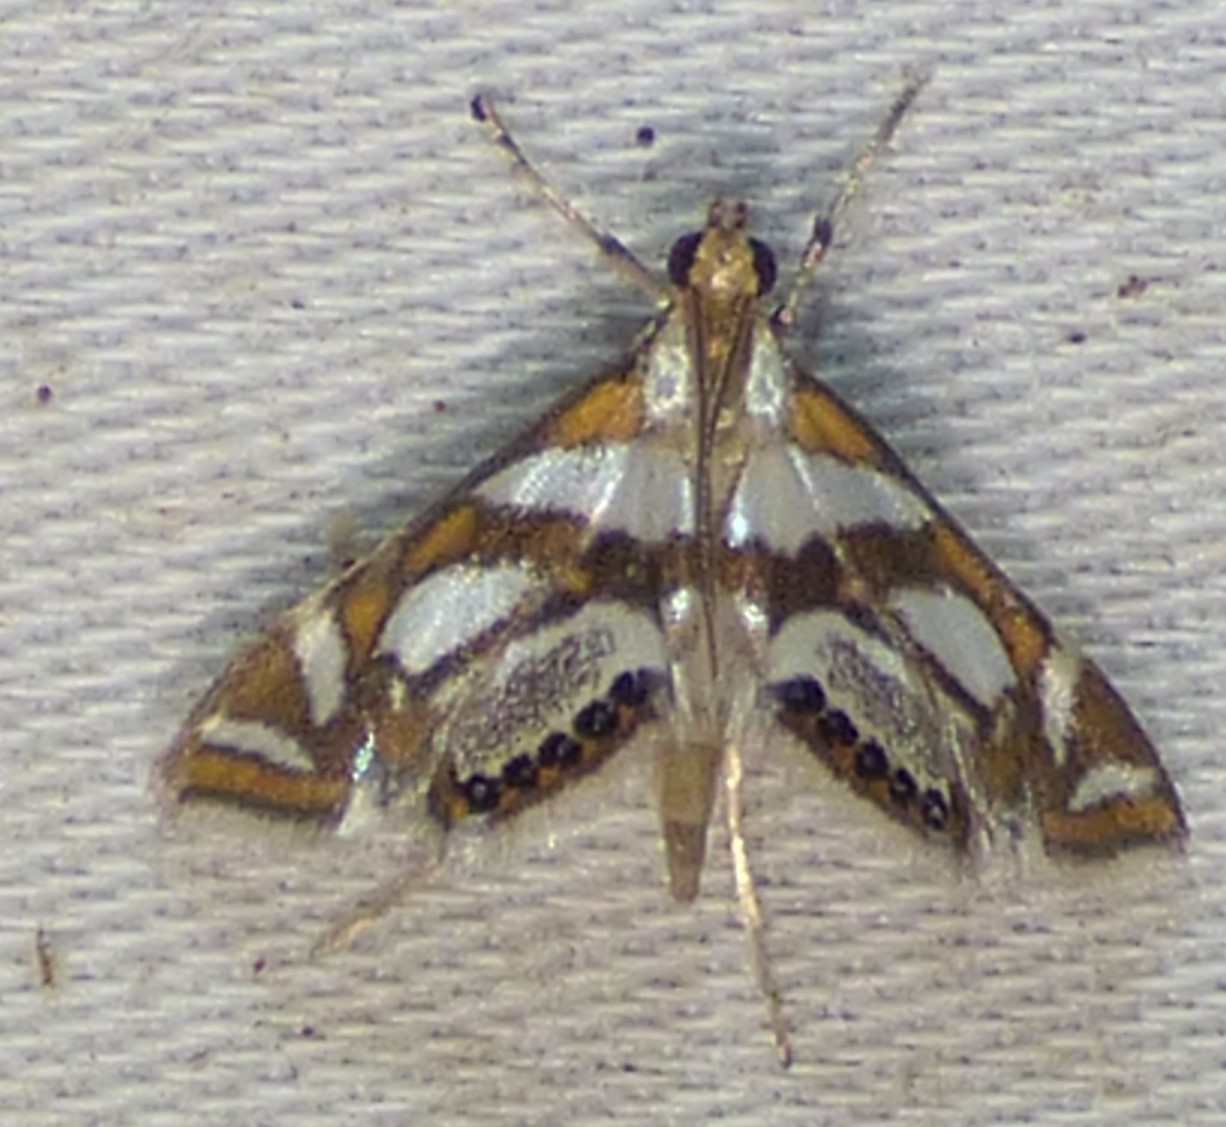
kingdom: Animalia
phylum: Arthropoda
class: Insecta
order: Lepidoptera
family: Crambidae
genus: Chrysendeton
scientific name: Chrysendeton medicinalis
